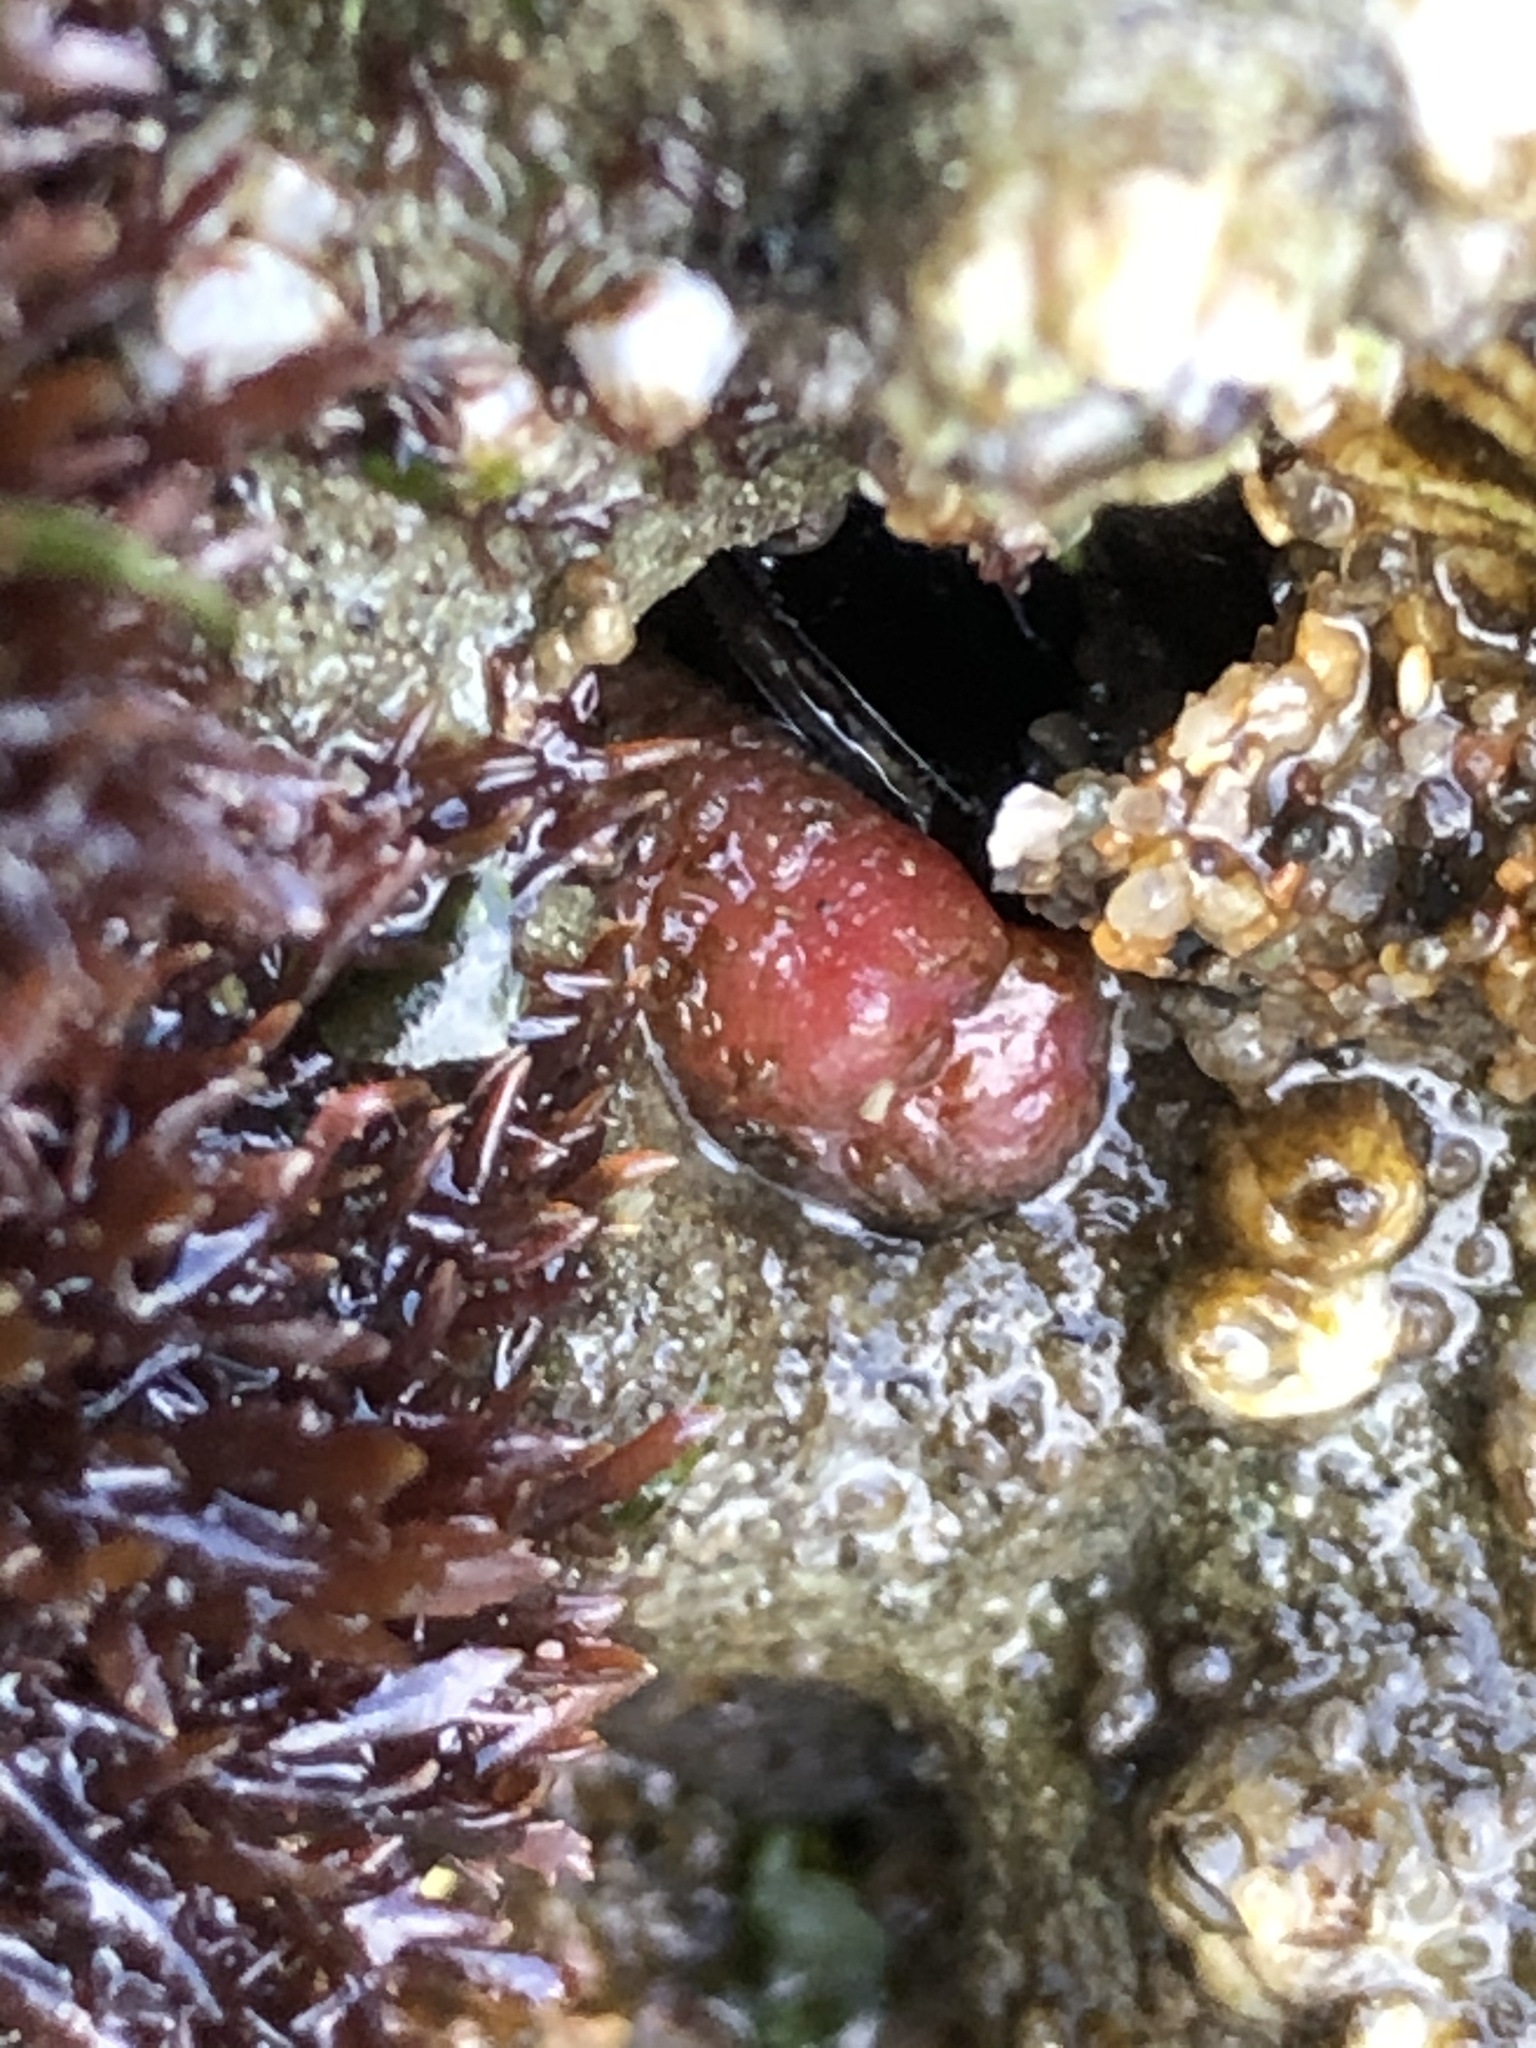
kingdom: Animalia
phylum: Mollusca
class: Bivalvia
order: Adapedonta
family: Hiatellidae
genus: Hiatella
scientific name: Hiatella arctica
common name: Arctic hiatella
